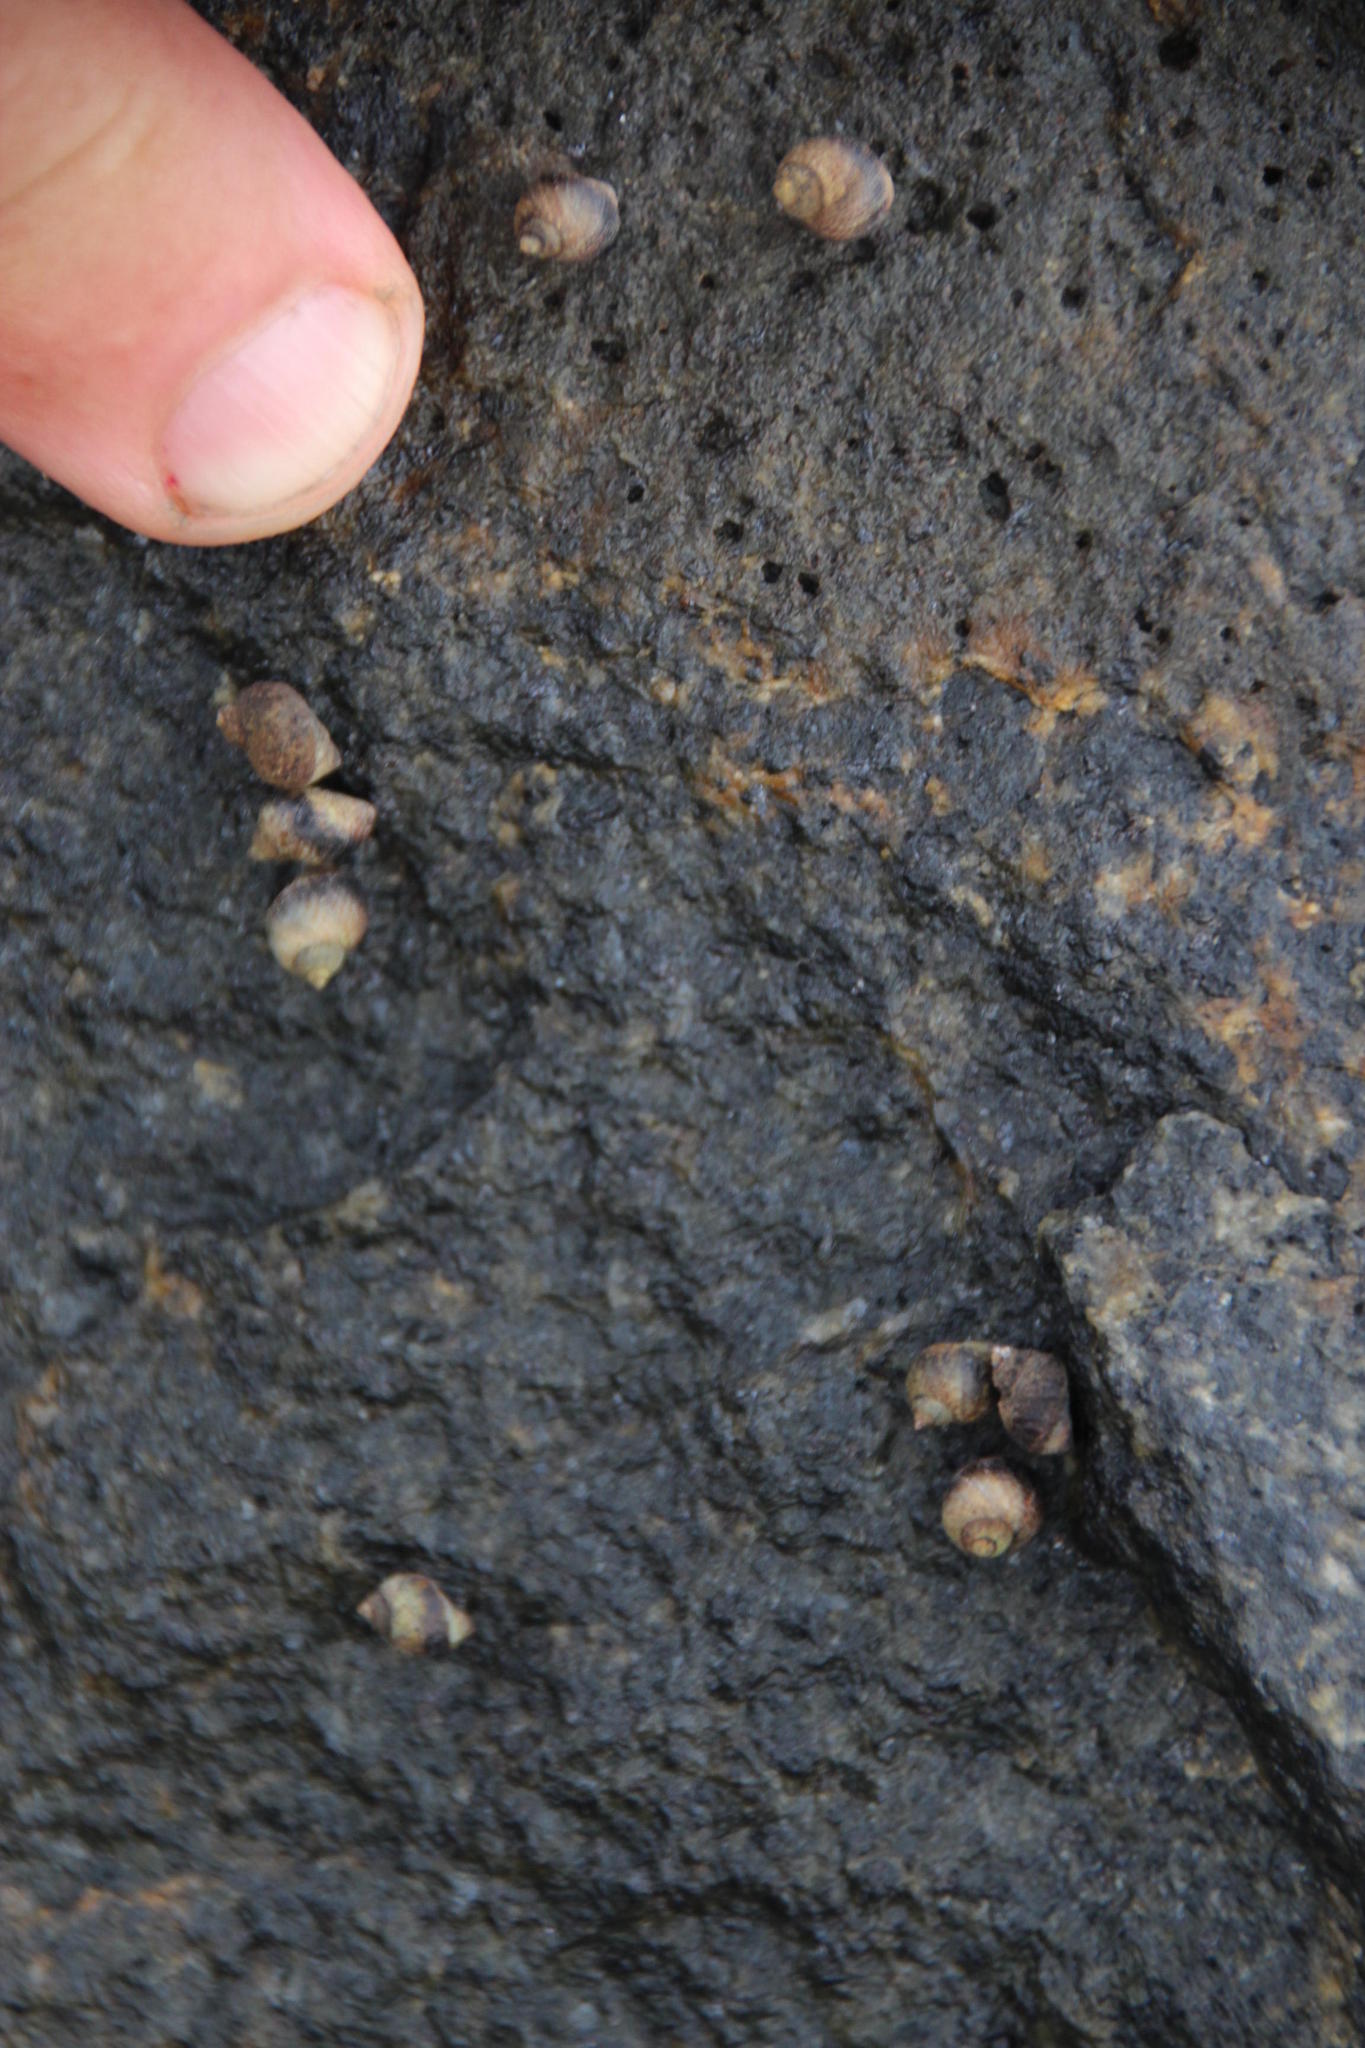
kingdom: Animalia
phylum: Mollusca
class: Gastropoda
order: Littorinimorpha
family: Littorinidae
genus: Afrolittorina
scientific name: Afrolittorina knysnaensis
